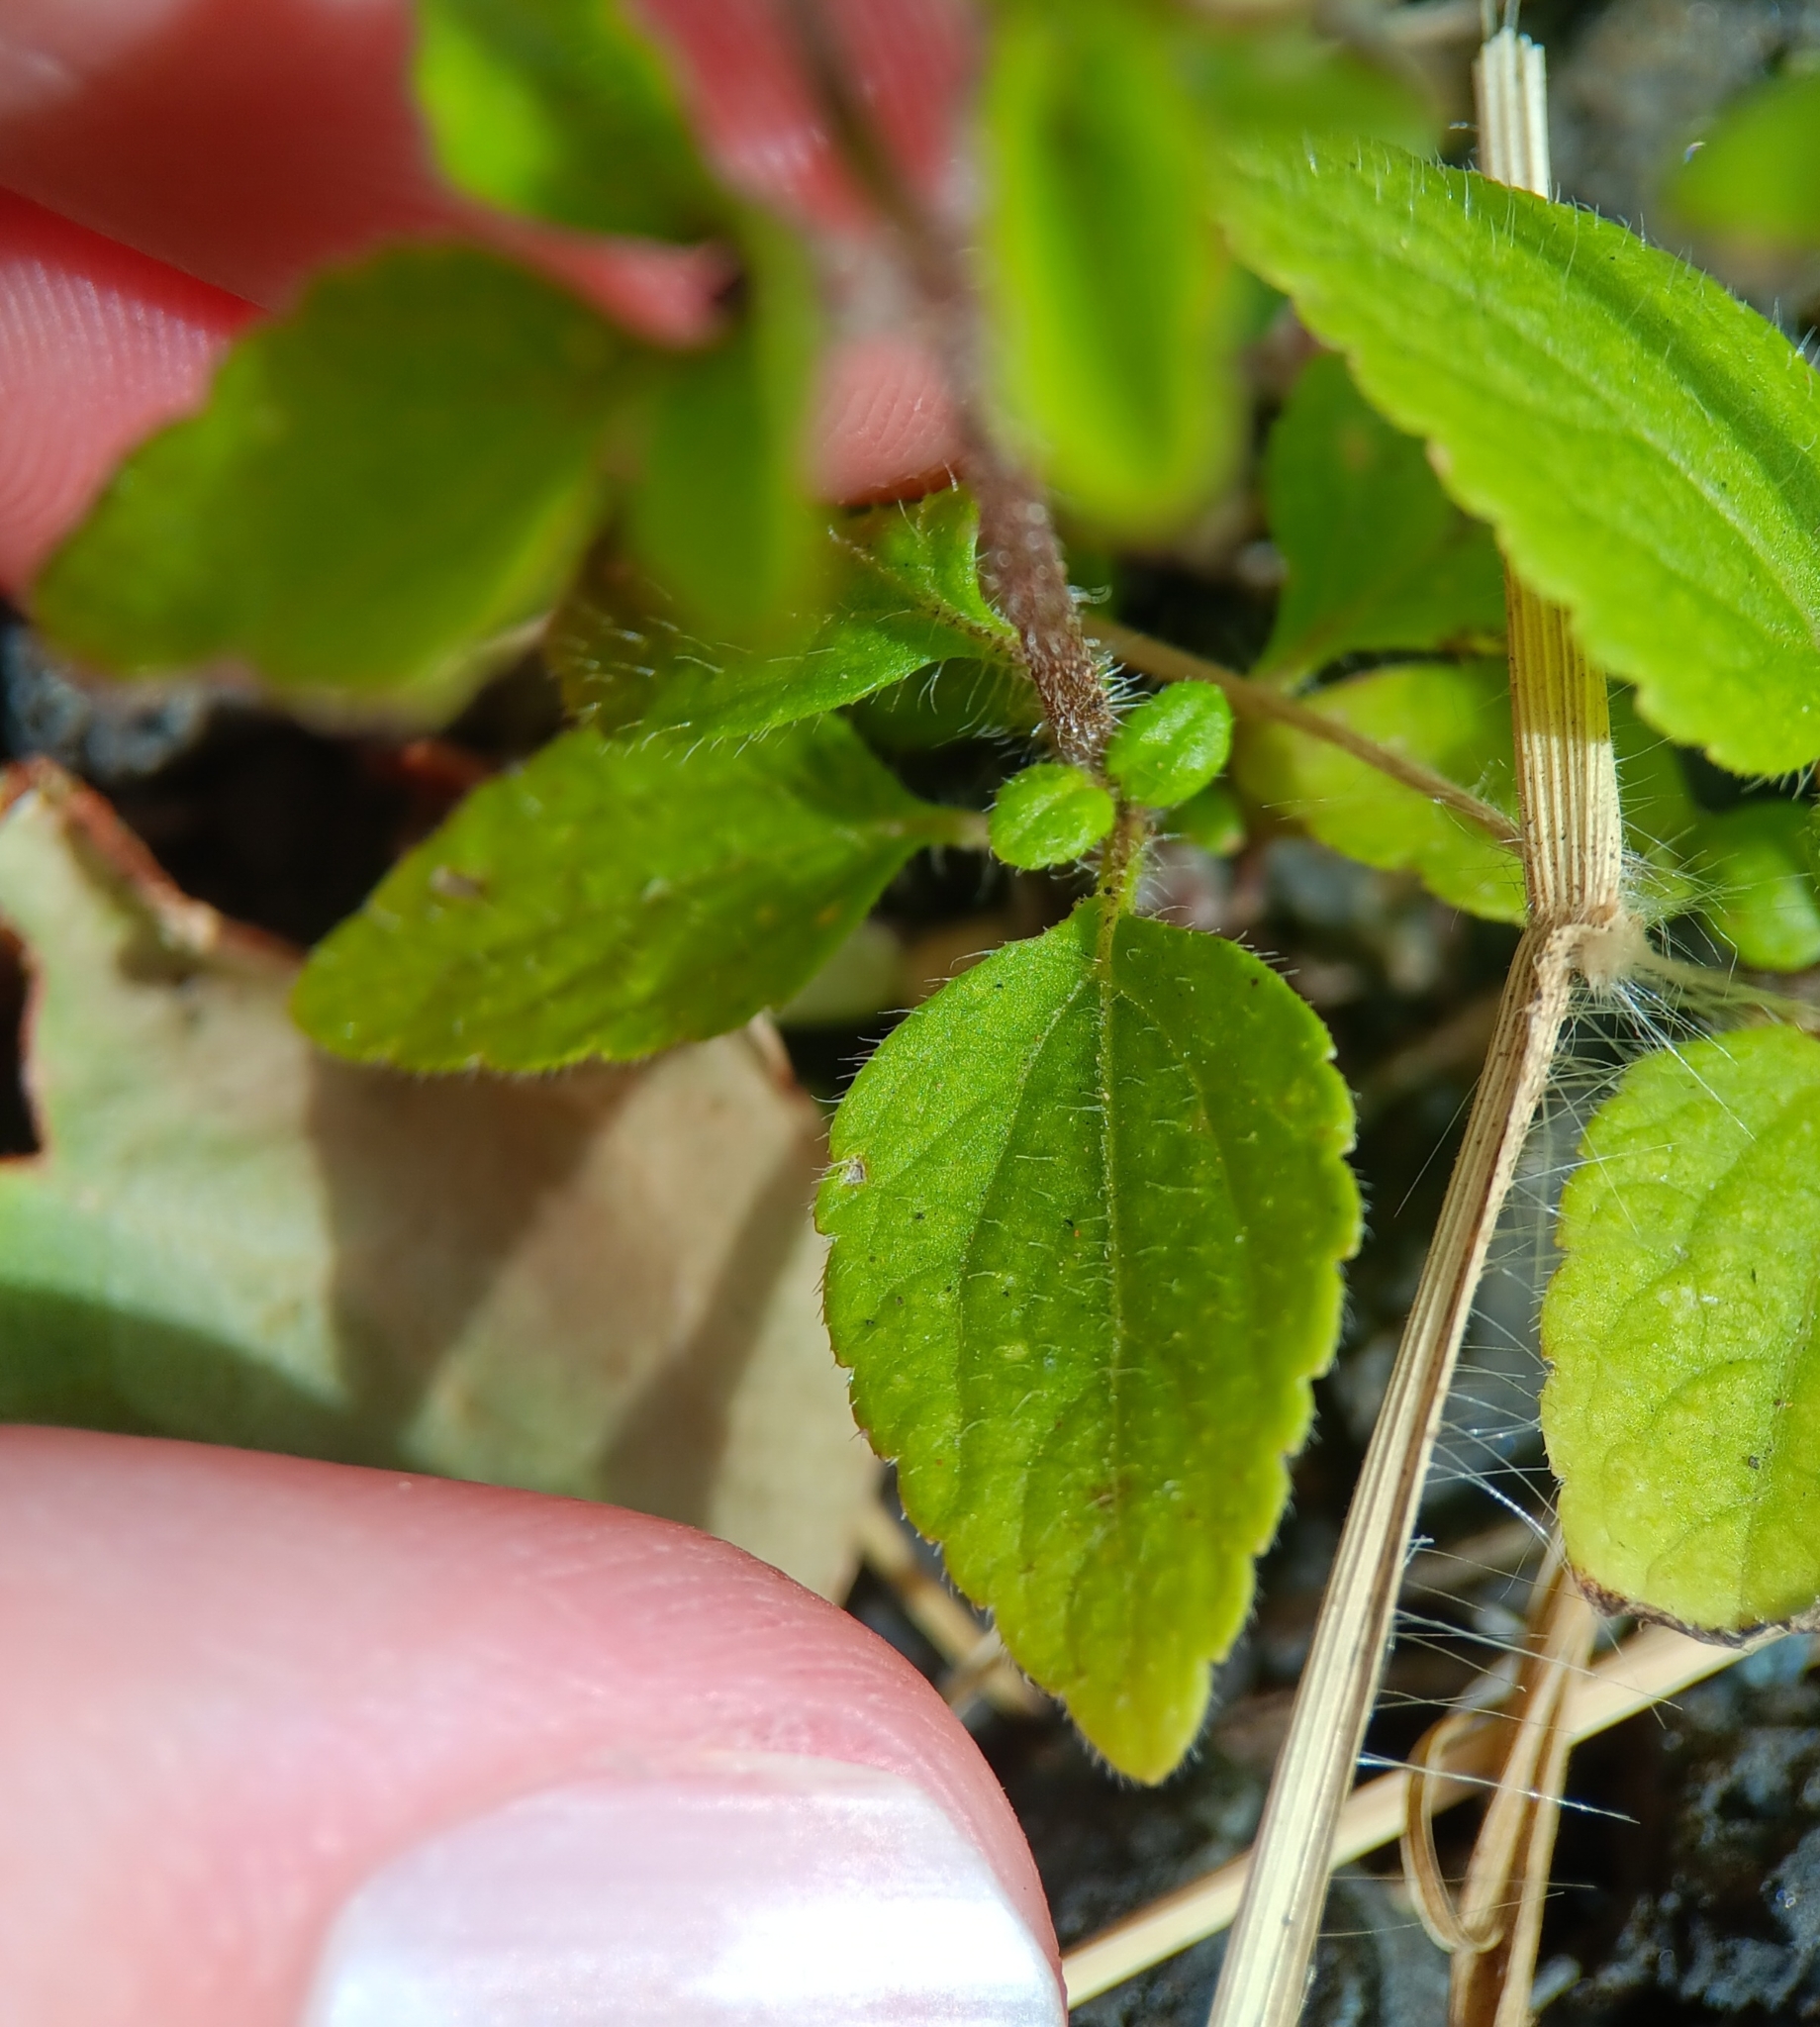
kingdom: Plantae
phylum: Tracheophyta
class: Magnoliopsida
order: Asterales
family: Asteraceae
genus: Ageratum
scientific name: Ageratum conyzoides
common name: Tropical whiteweed
